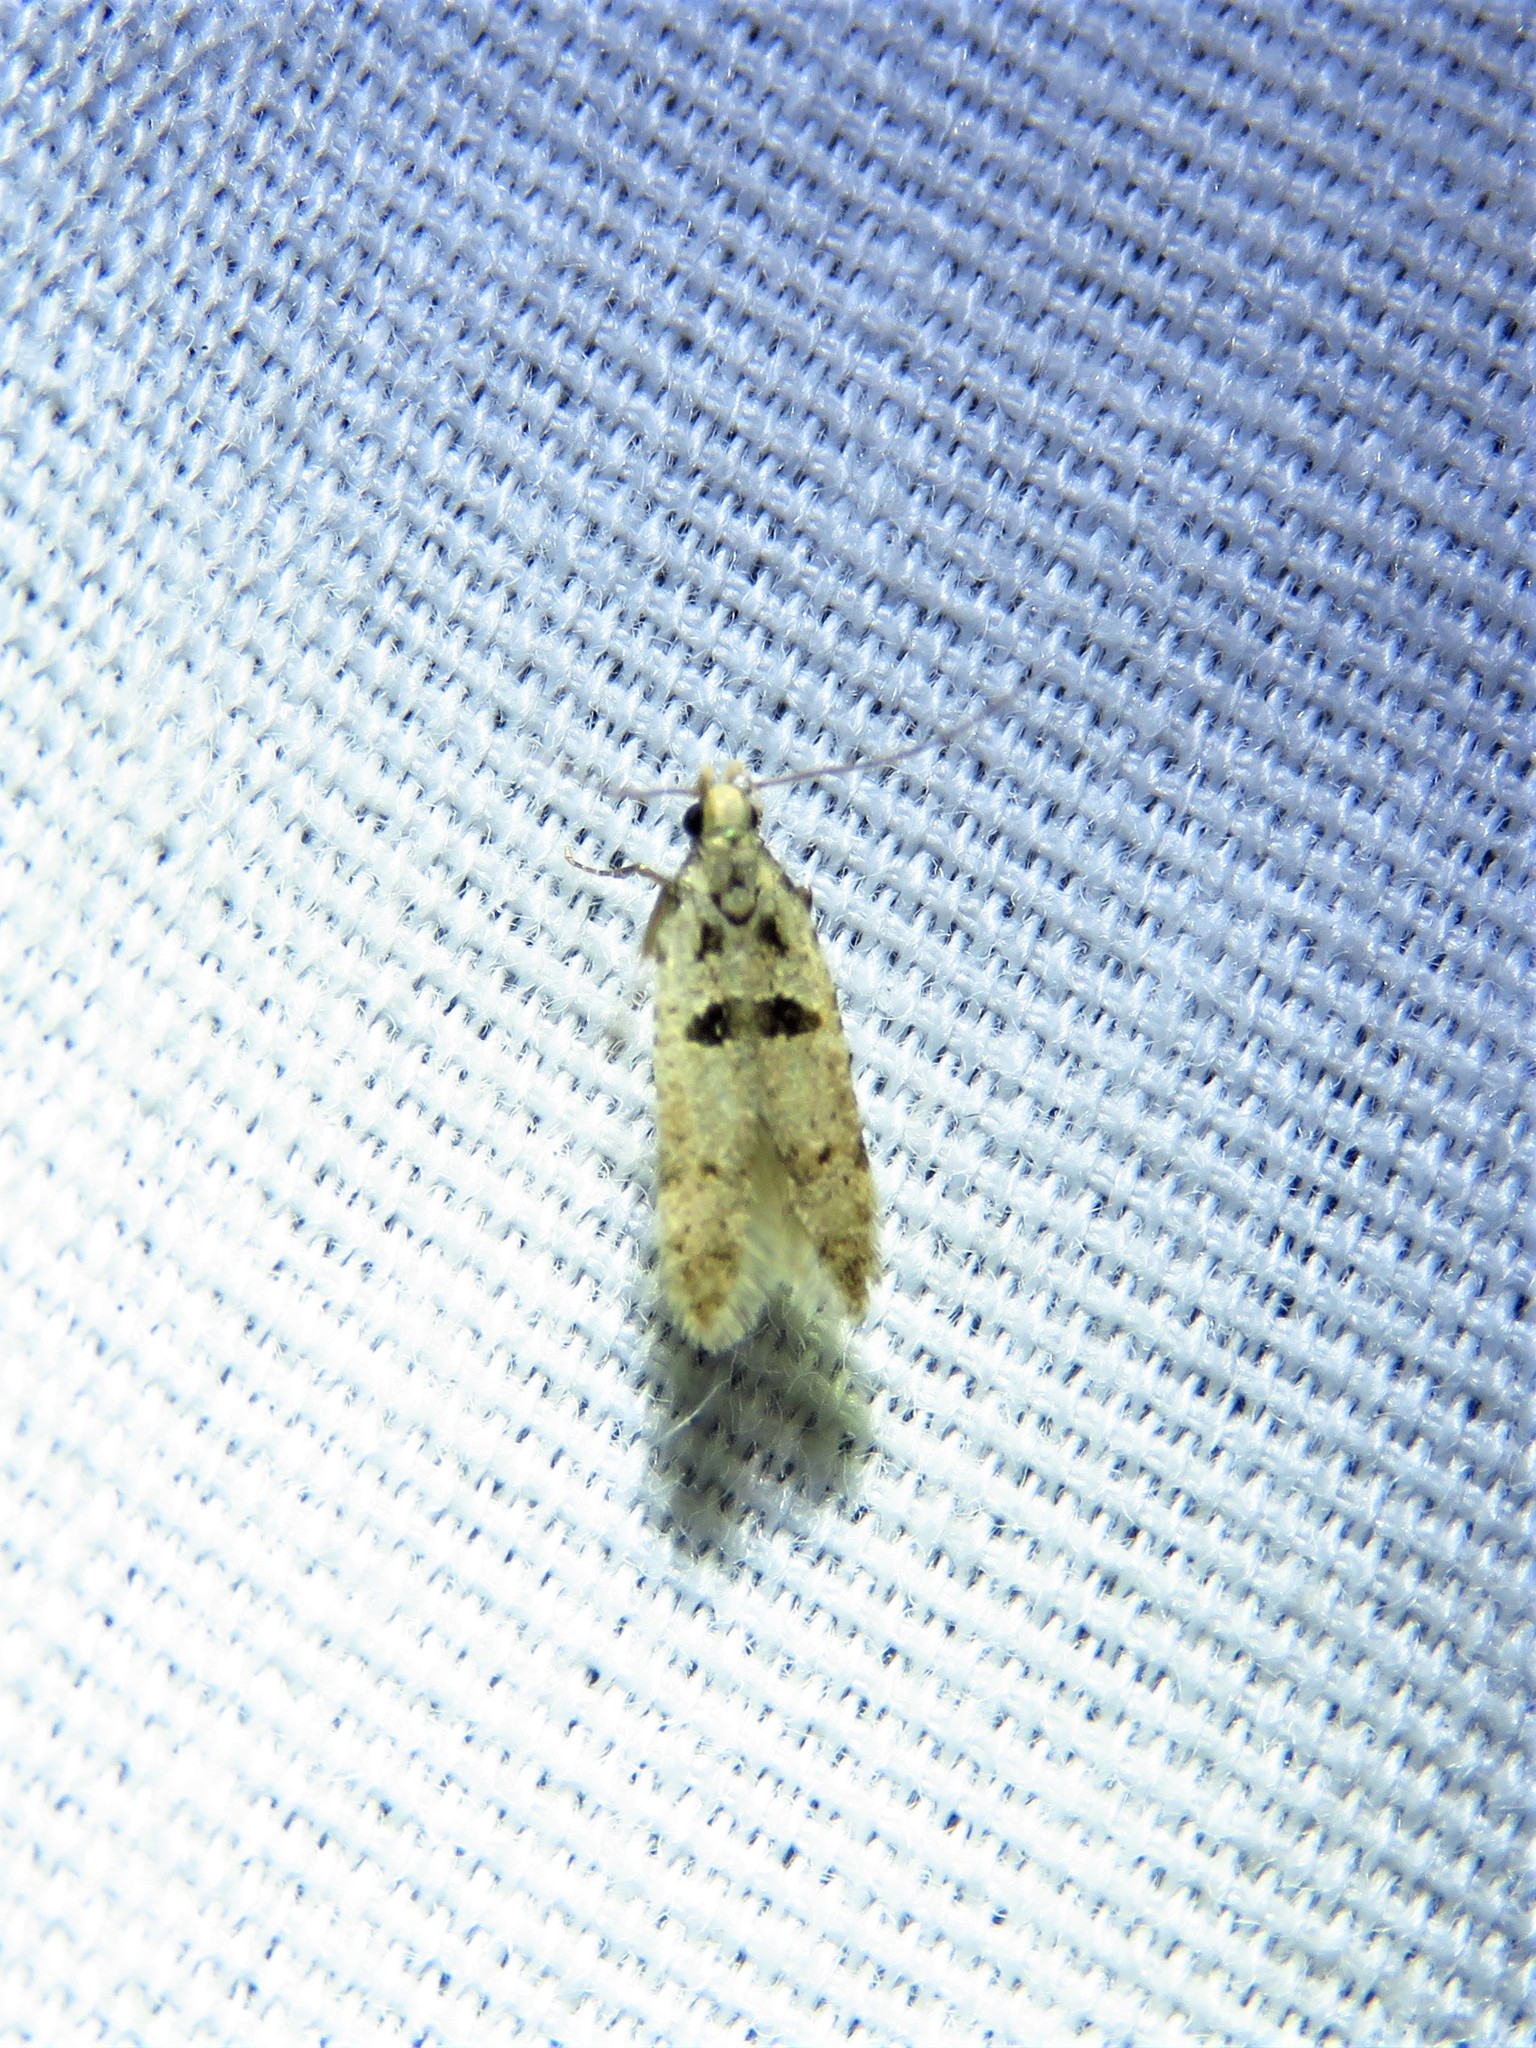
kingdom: Animalia
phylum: Arthropoda
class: Insecta
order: Lepidoptera
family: Gelechiidae
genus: Deltophora
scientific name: Deltophora glandiferella
